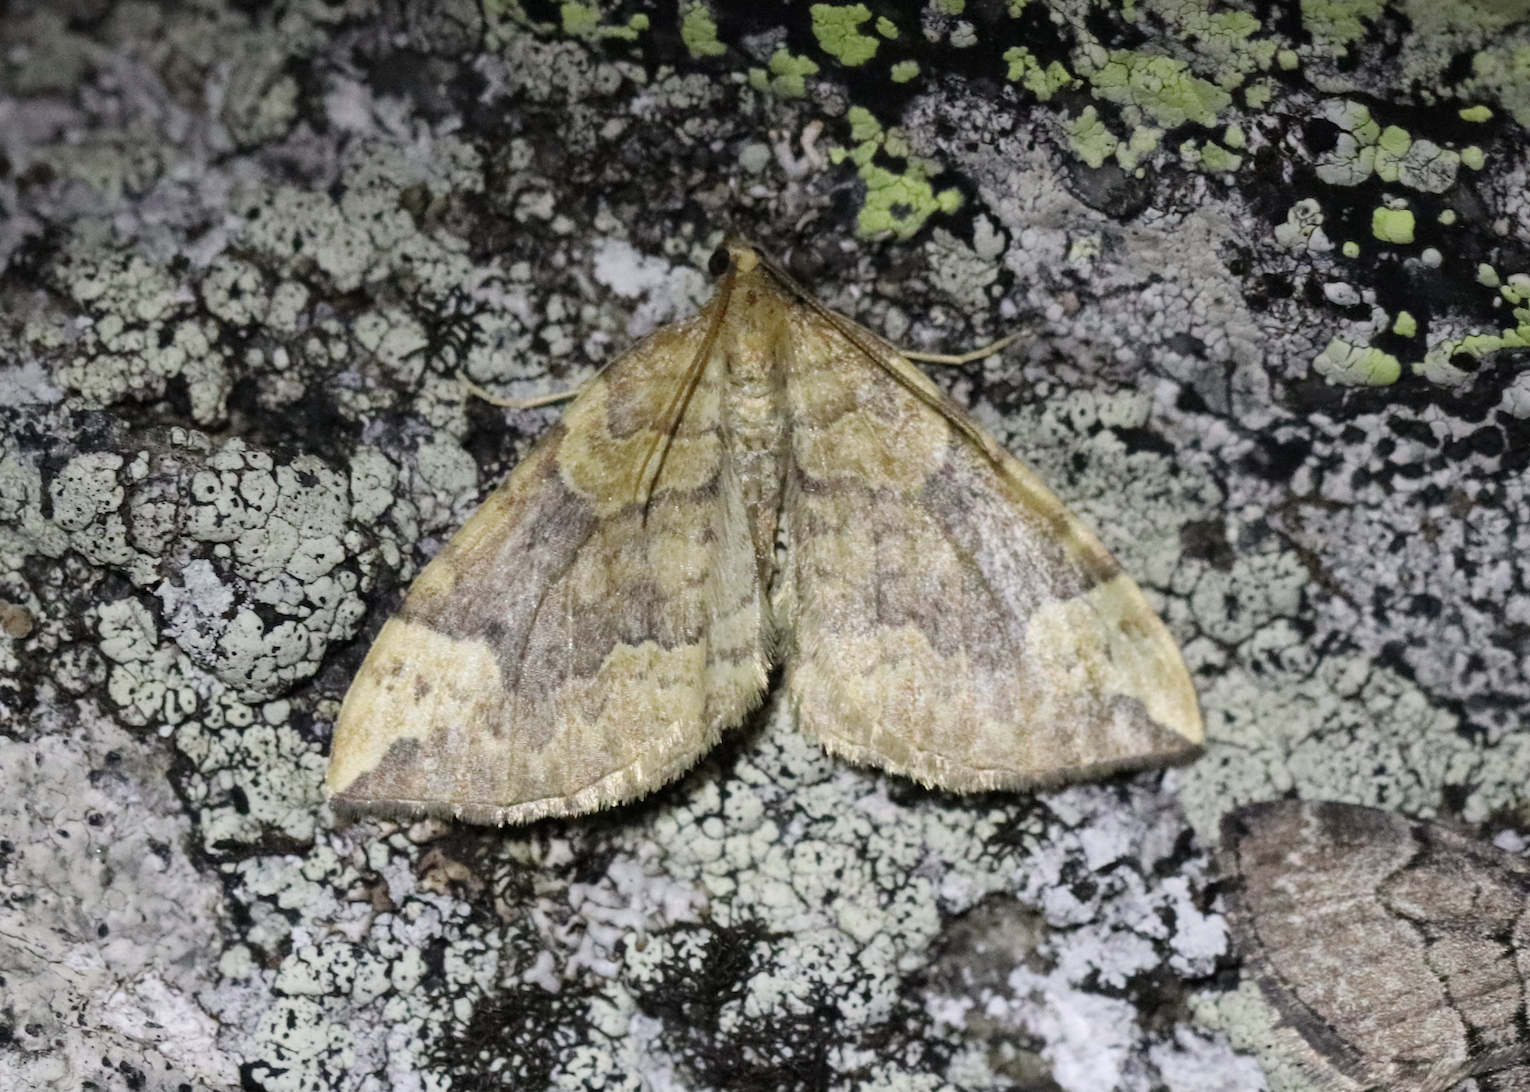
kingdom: Animalia
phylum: Arthropoda
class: Insecta
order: Lepidoptera
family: Geometridae
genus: Eulithis
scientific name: Eulithis populata
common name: Northern spinach
